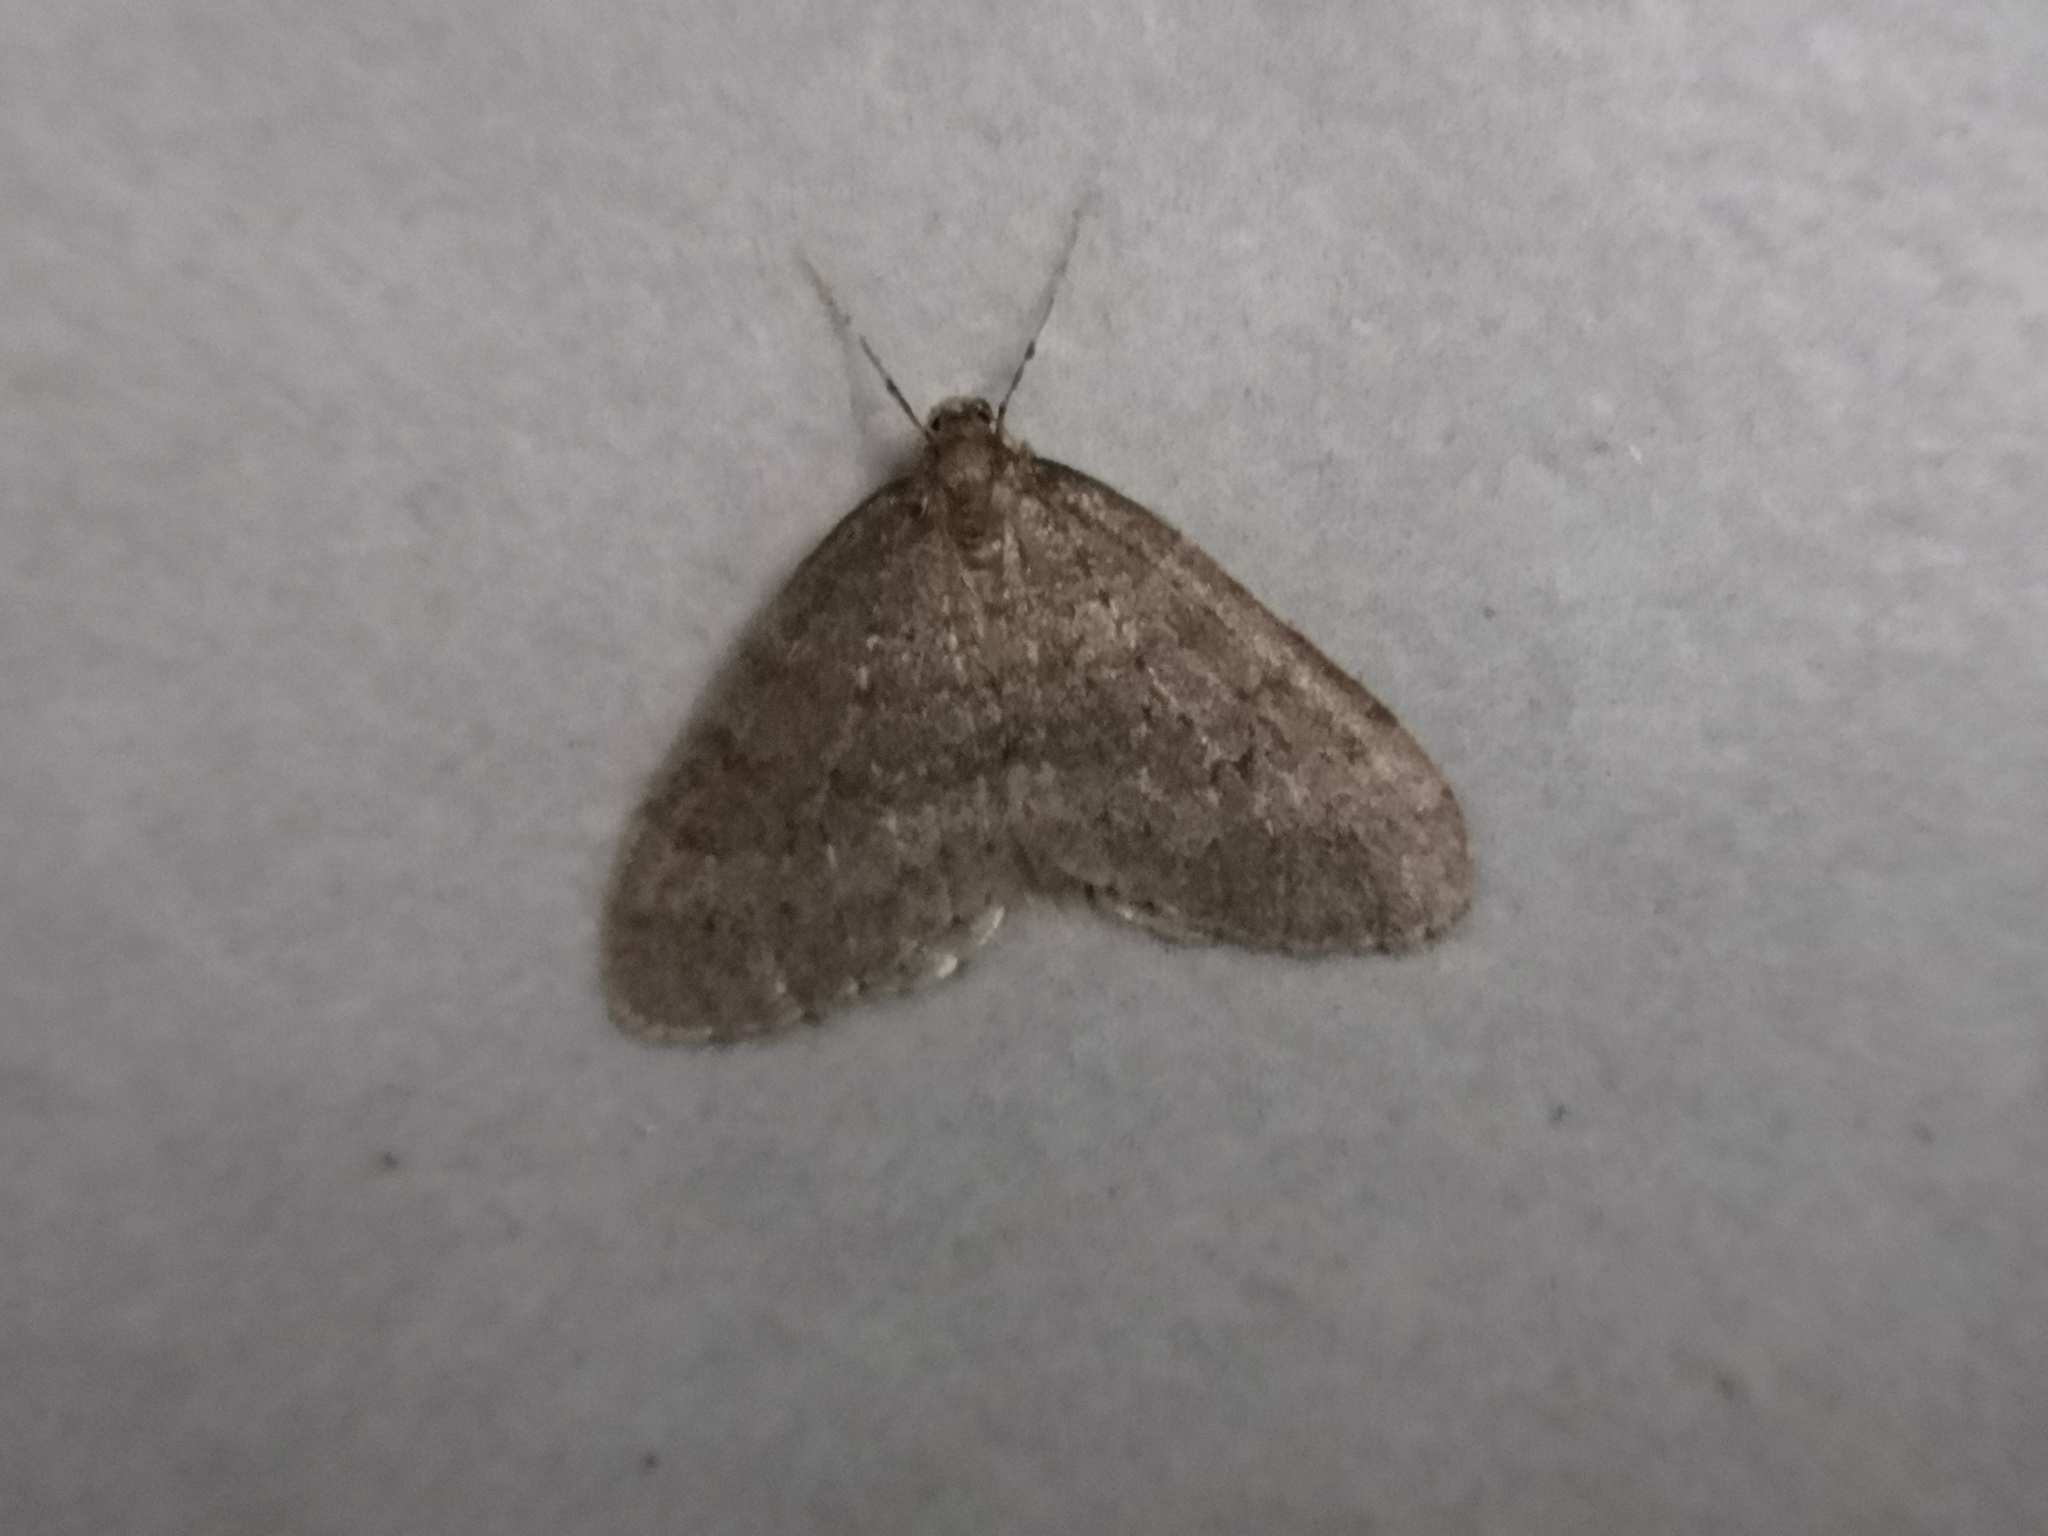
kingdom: Animalia
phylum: Arthropoda
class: Insecta
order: Lepidoptera
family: Geometridae
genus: Operophtera
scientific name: Operophtera brumata
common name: Winter moth
